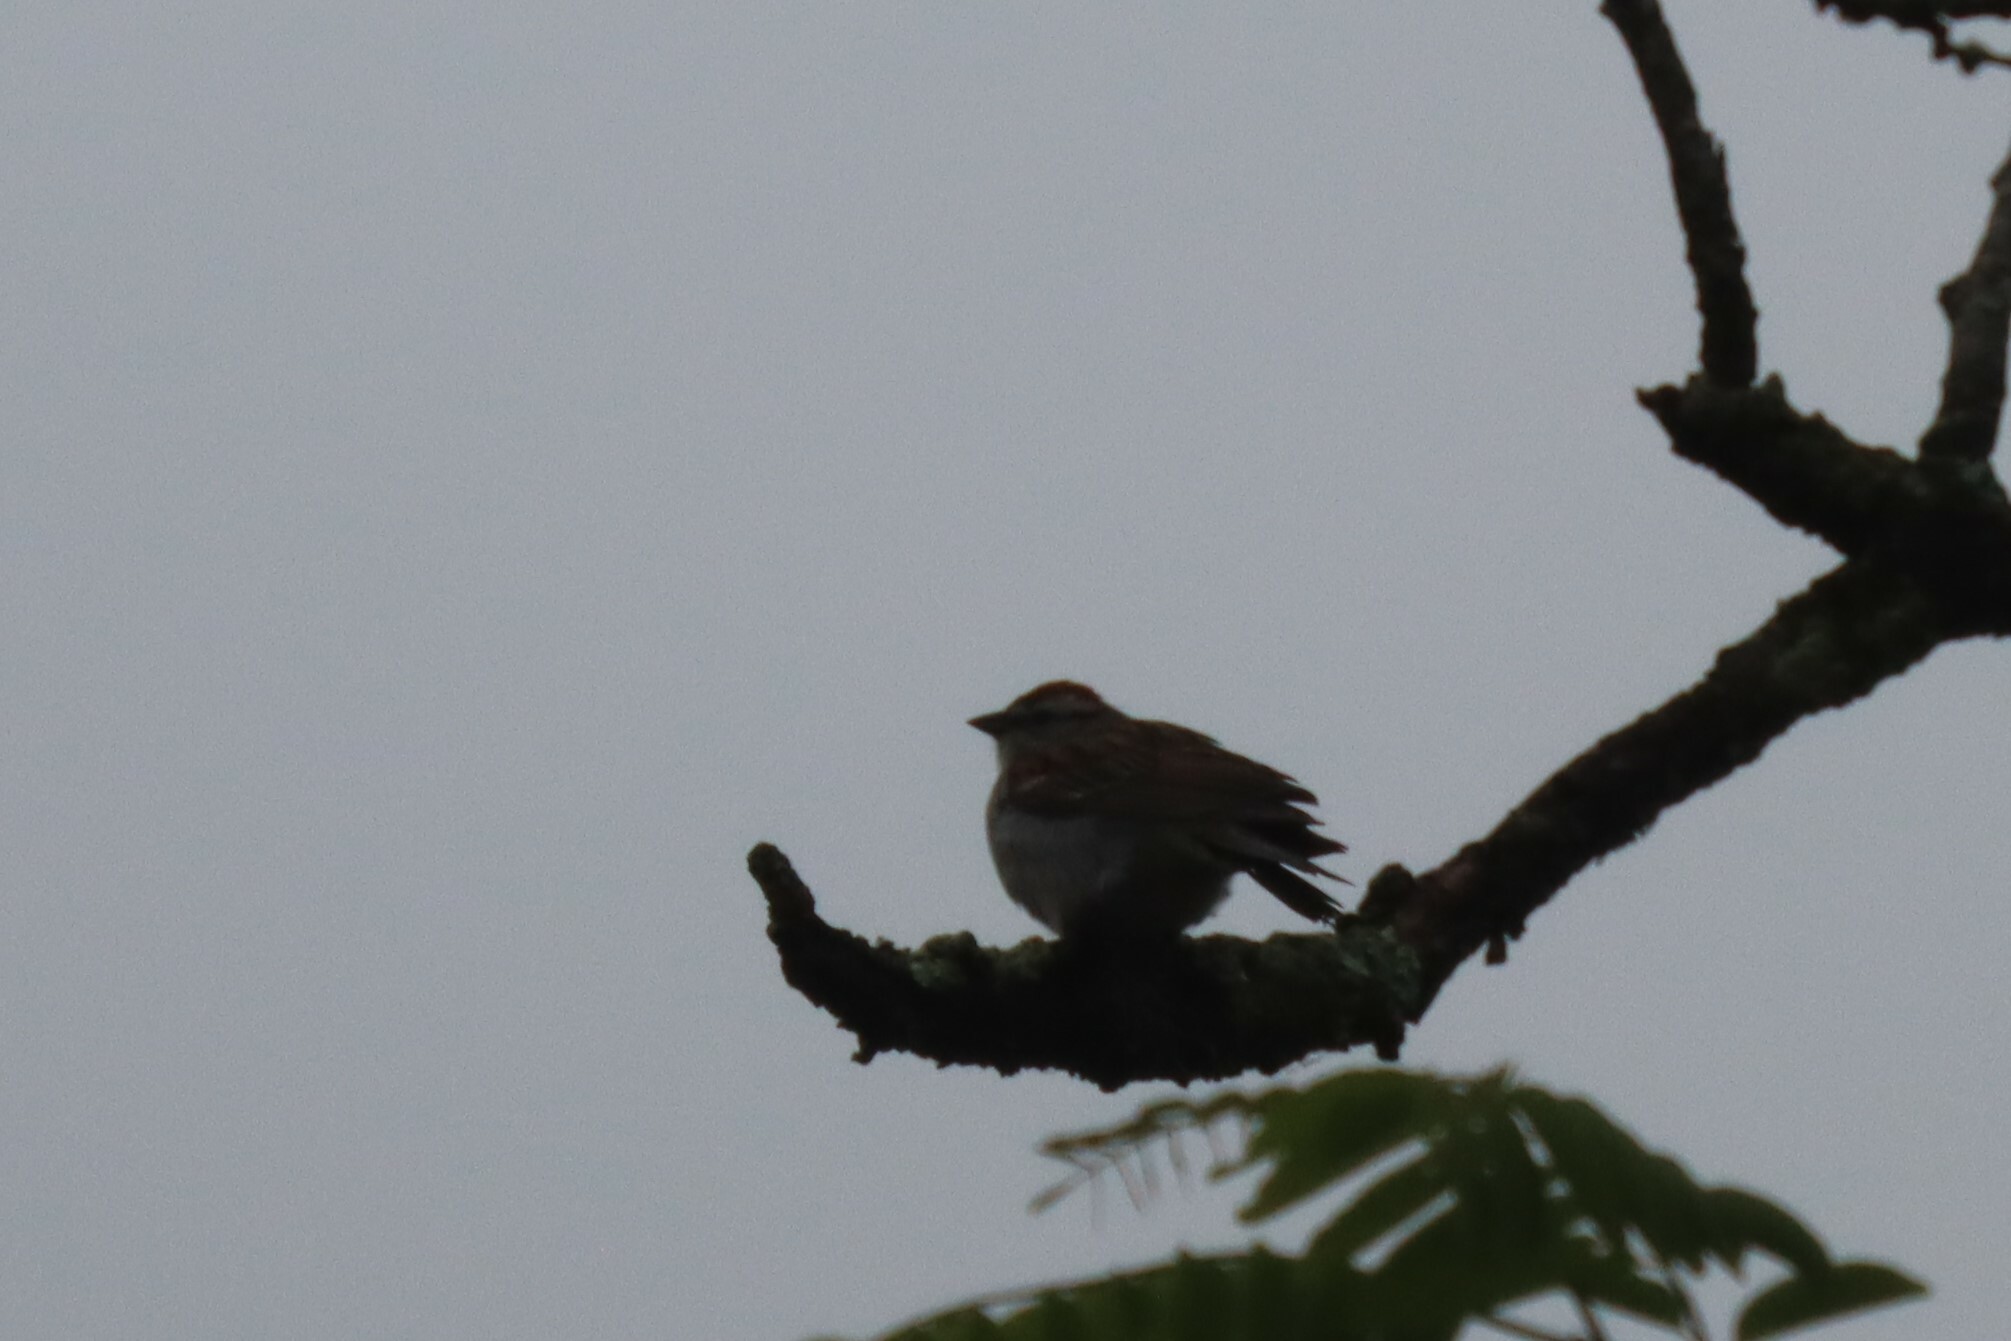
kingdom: Animalia
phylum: Chordata
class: Aves
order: Passeriformes
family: Passerellidae
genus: Spizella
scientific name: Spizella passerina
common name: Chipping sparrow
